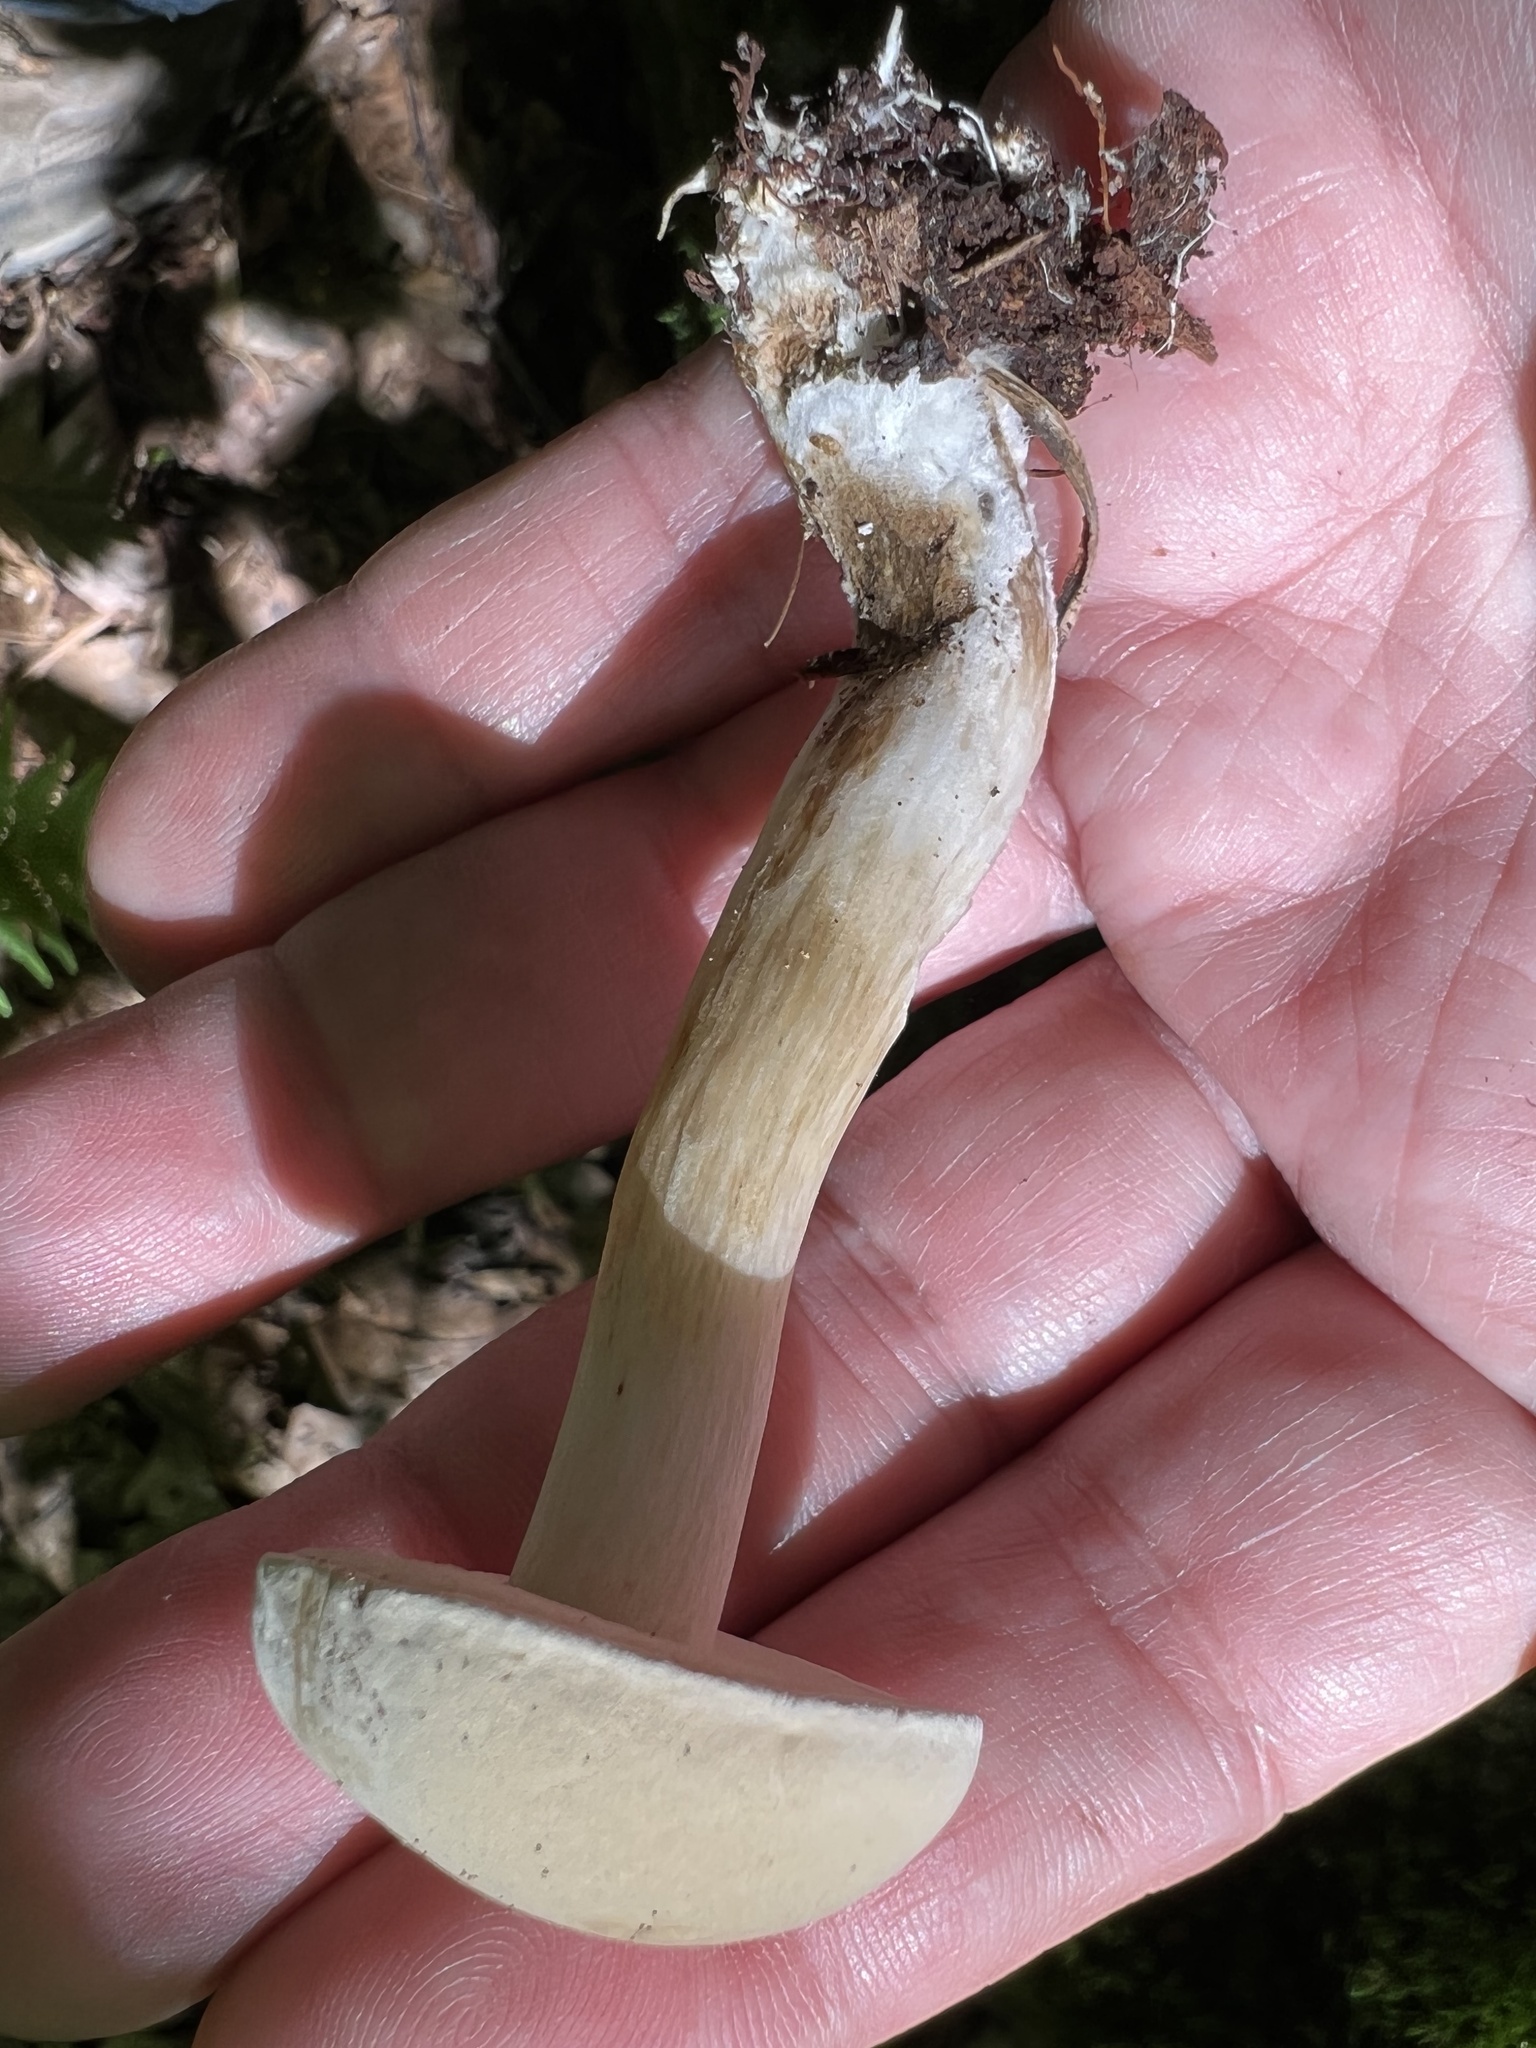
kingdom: Fungi
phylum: Basidiomycota
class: Agaricomycetes
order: Boletales
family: Boletaceae
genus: Imleria
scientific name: Imleria pallida
